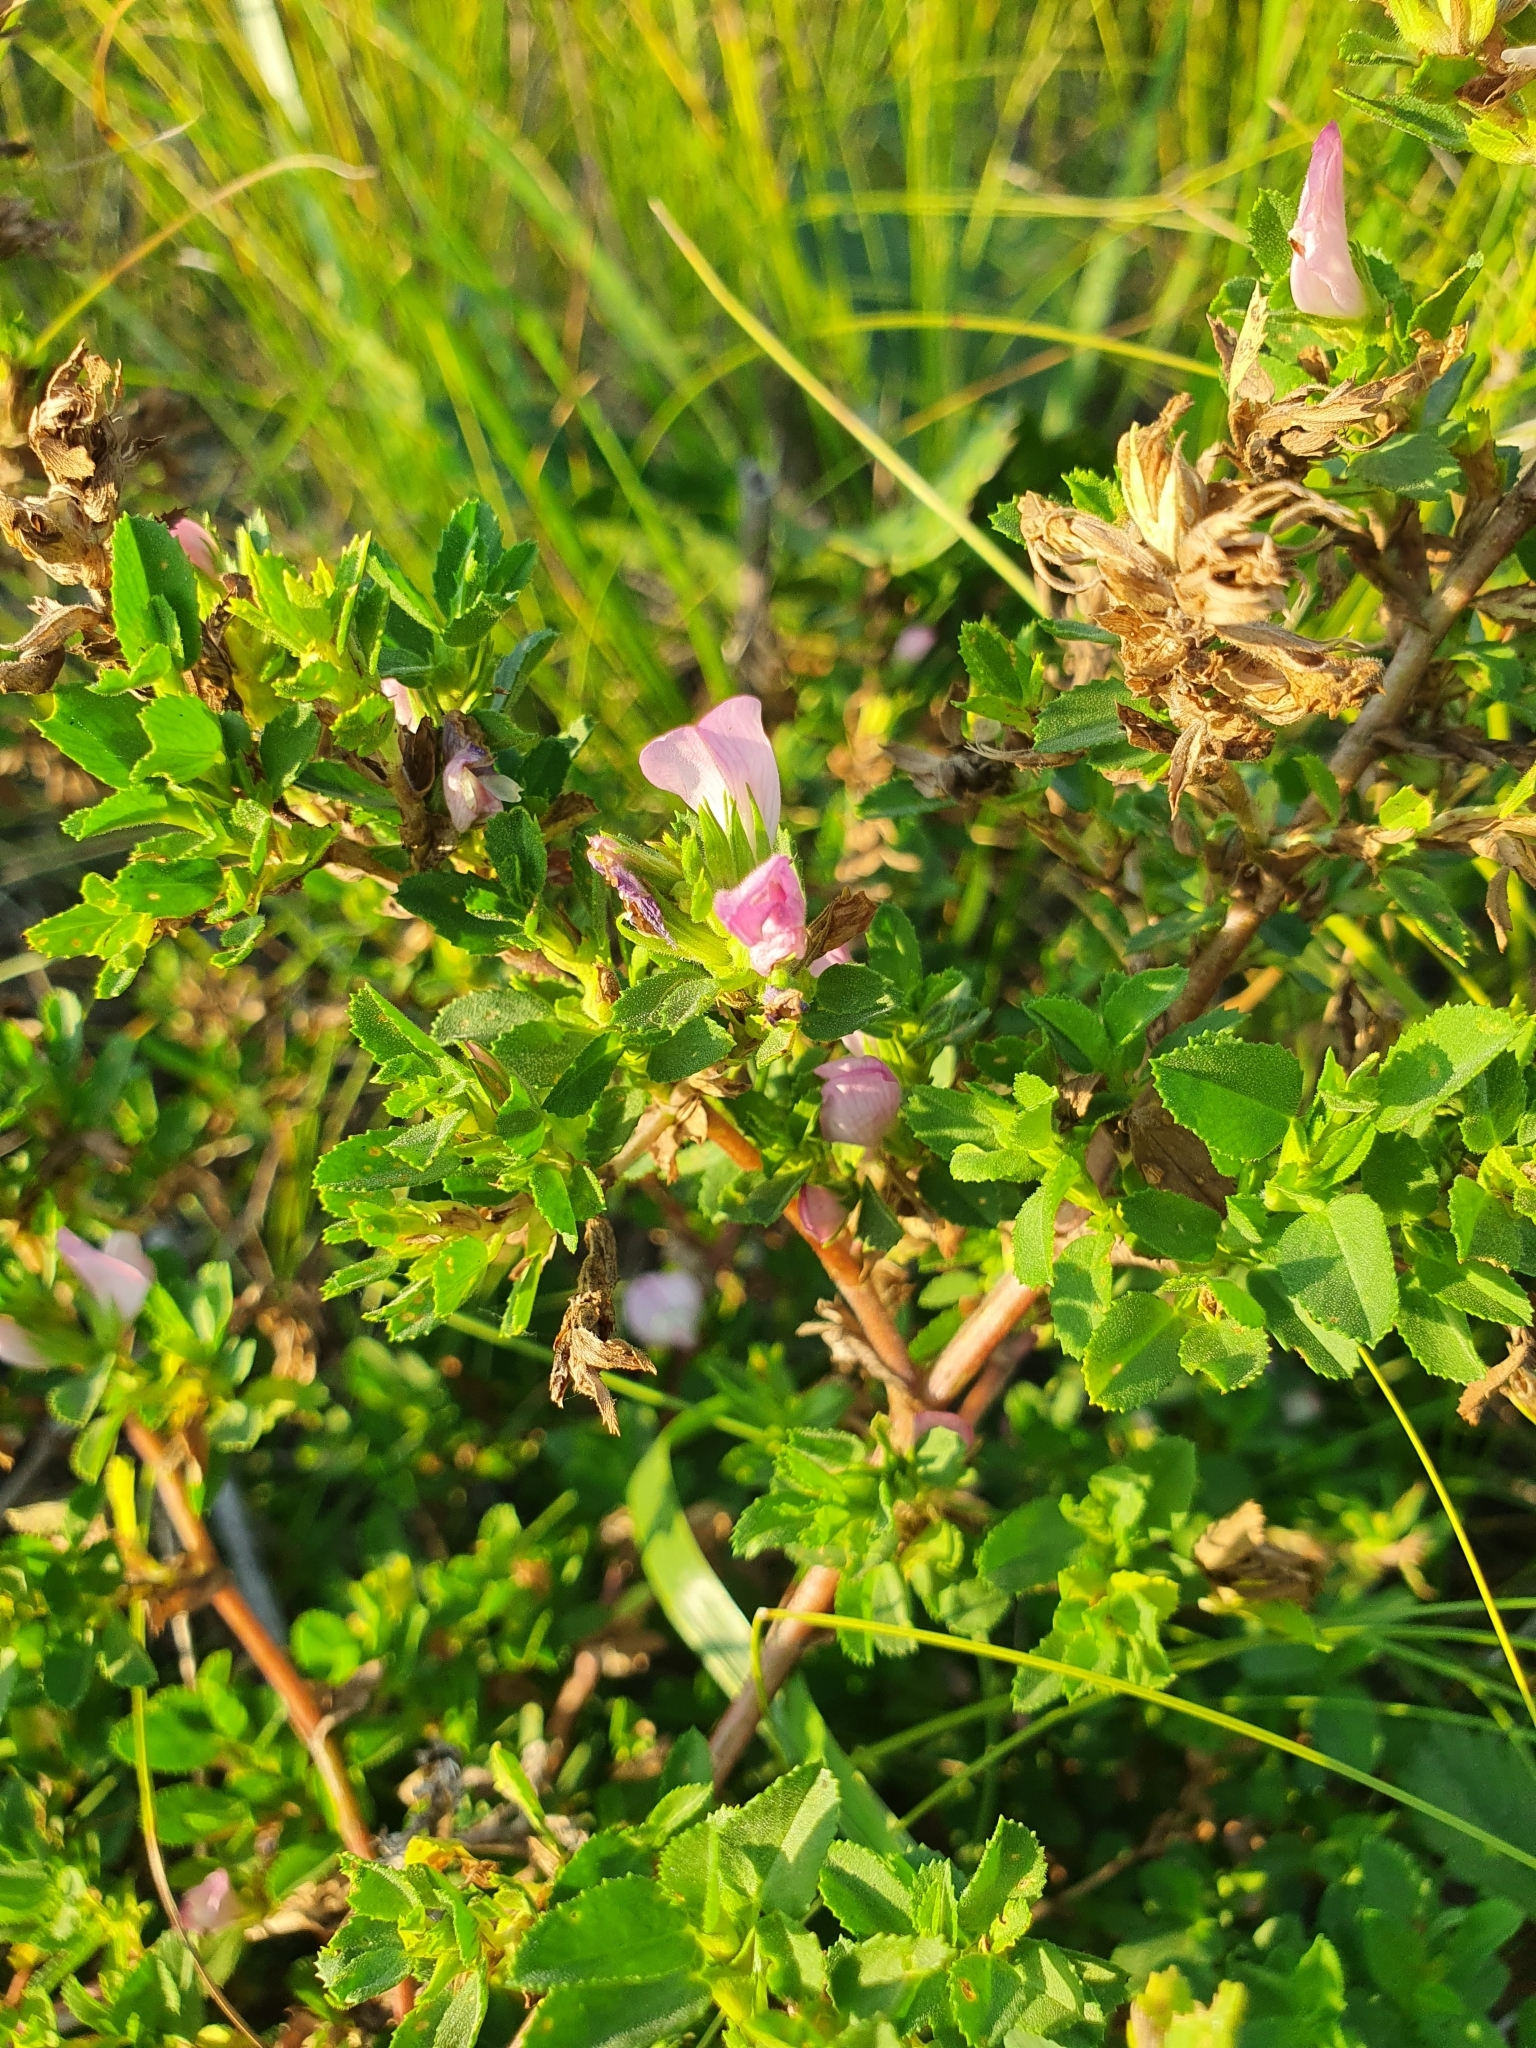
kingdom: Plantae
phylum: Tracheophyta
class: Magnoliopsida
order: Fabales
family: Fabaceae
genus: Ononis
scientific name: Ononis arvensis
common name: Field restharrow
